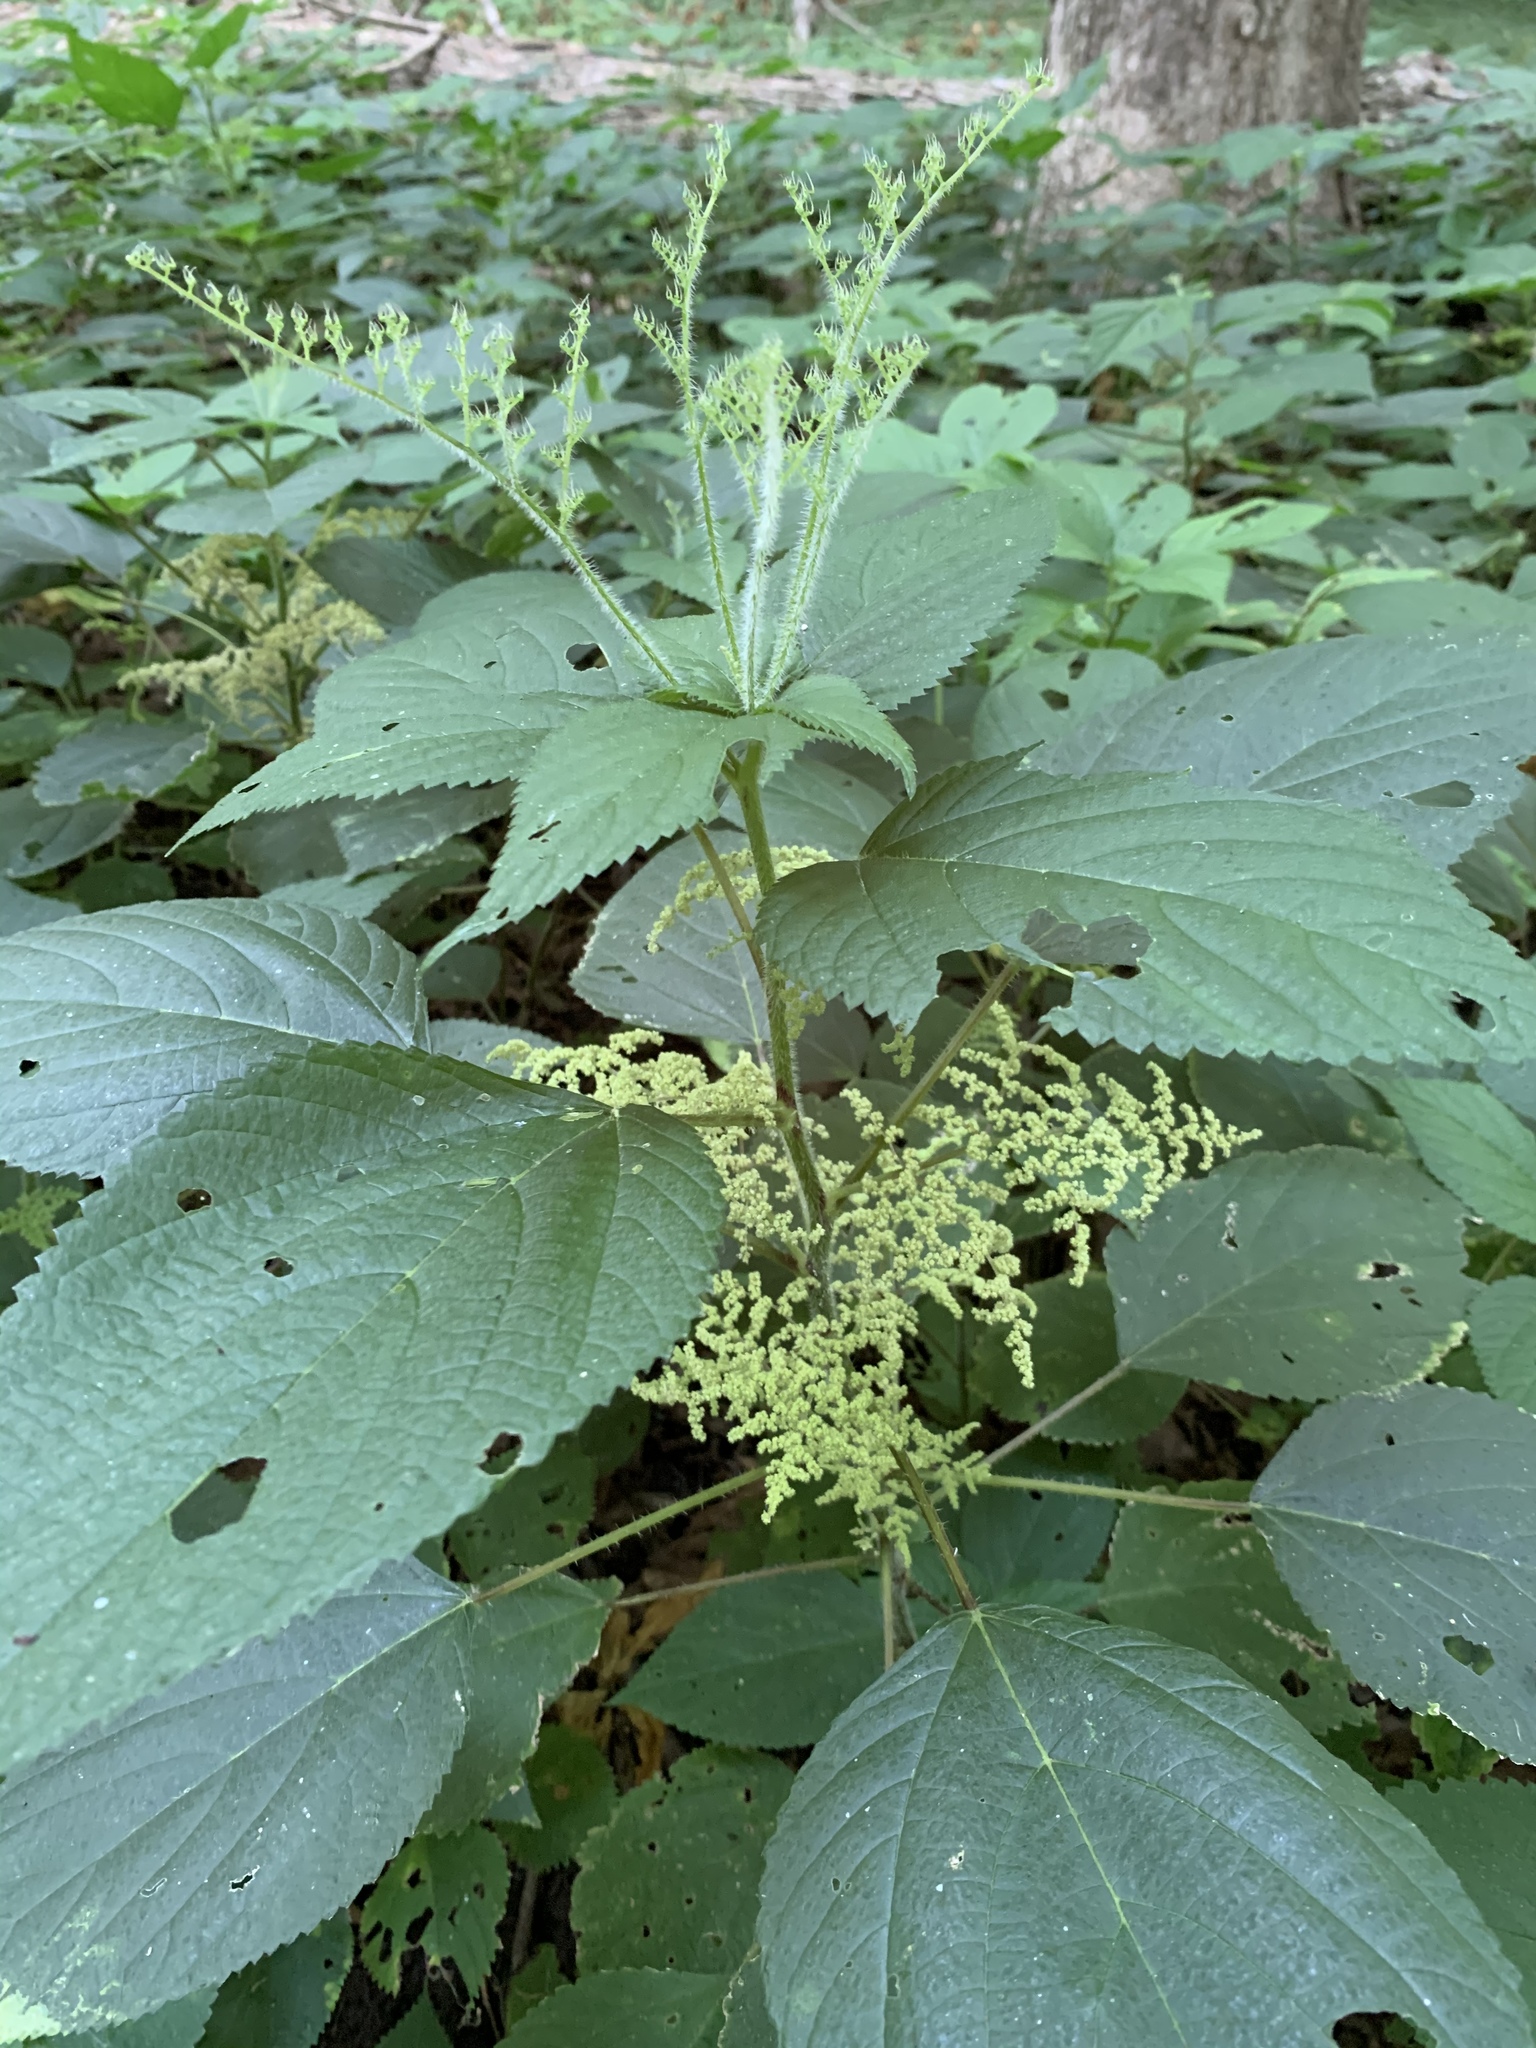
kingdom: Plantae
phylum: Tracheophyta
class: Magnoliopsida
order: Rosales
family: Urticaceae
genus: Laportea
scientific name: Laportea canadensis
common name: Canada nettle
